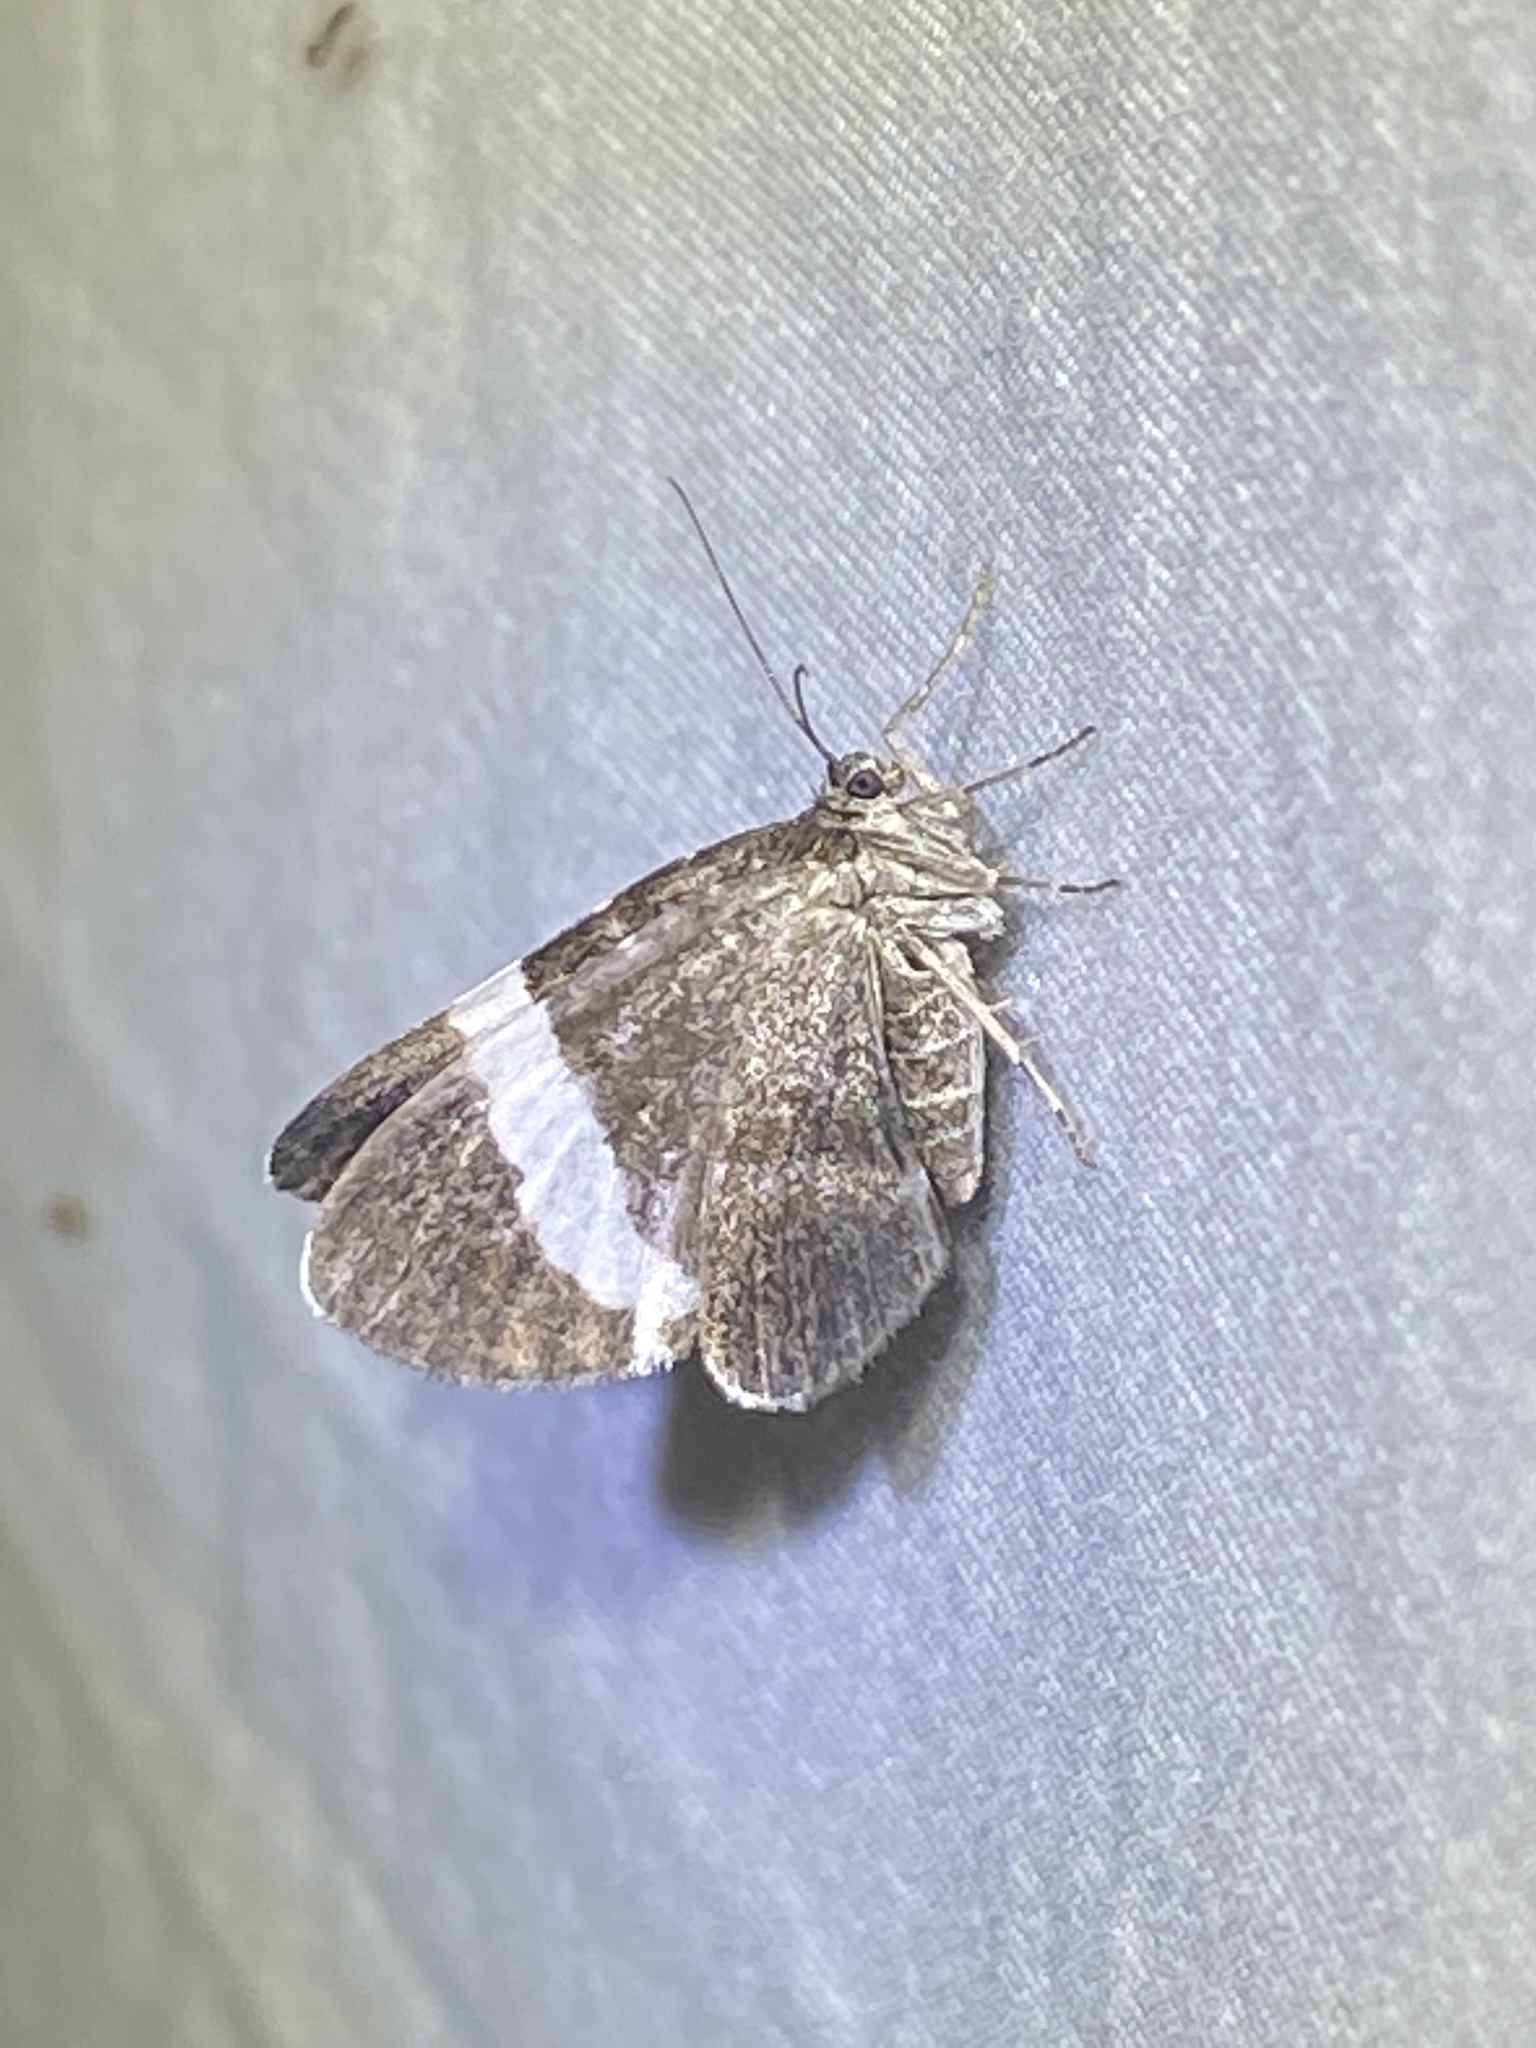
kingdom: Animalia
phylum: Arthropoda
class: Insecta
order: Lepidoptera
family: Geometridae
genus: Trichodezia
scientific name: Trichodezia albovittata
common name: White striped black
